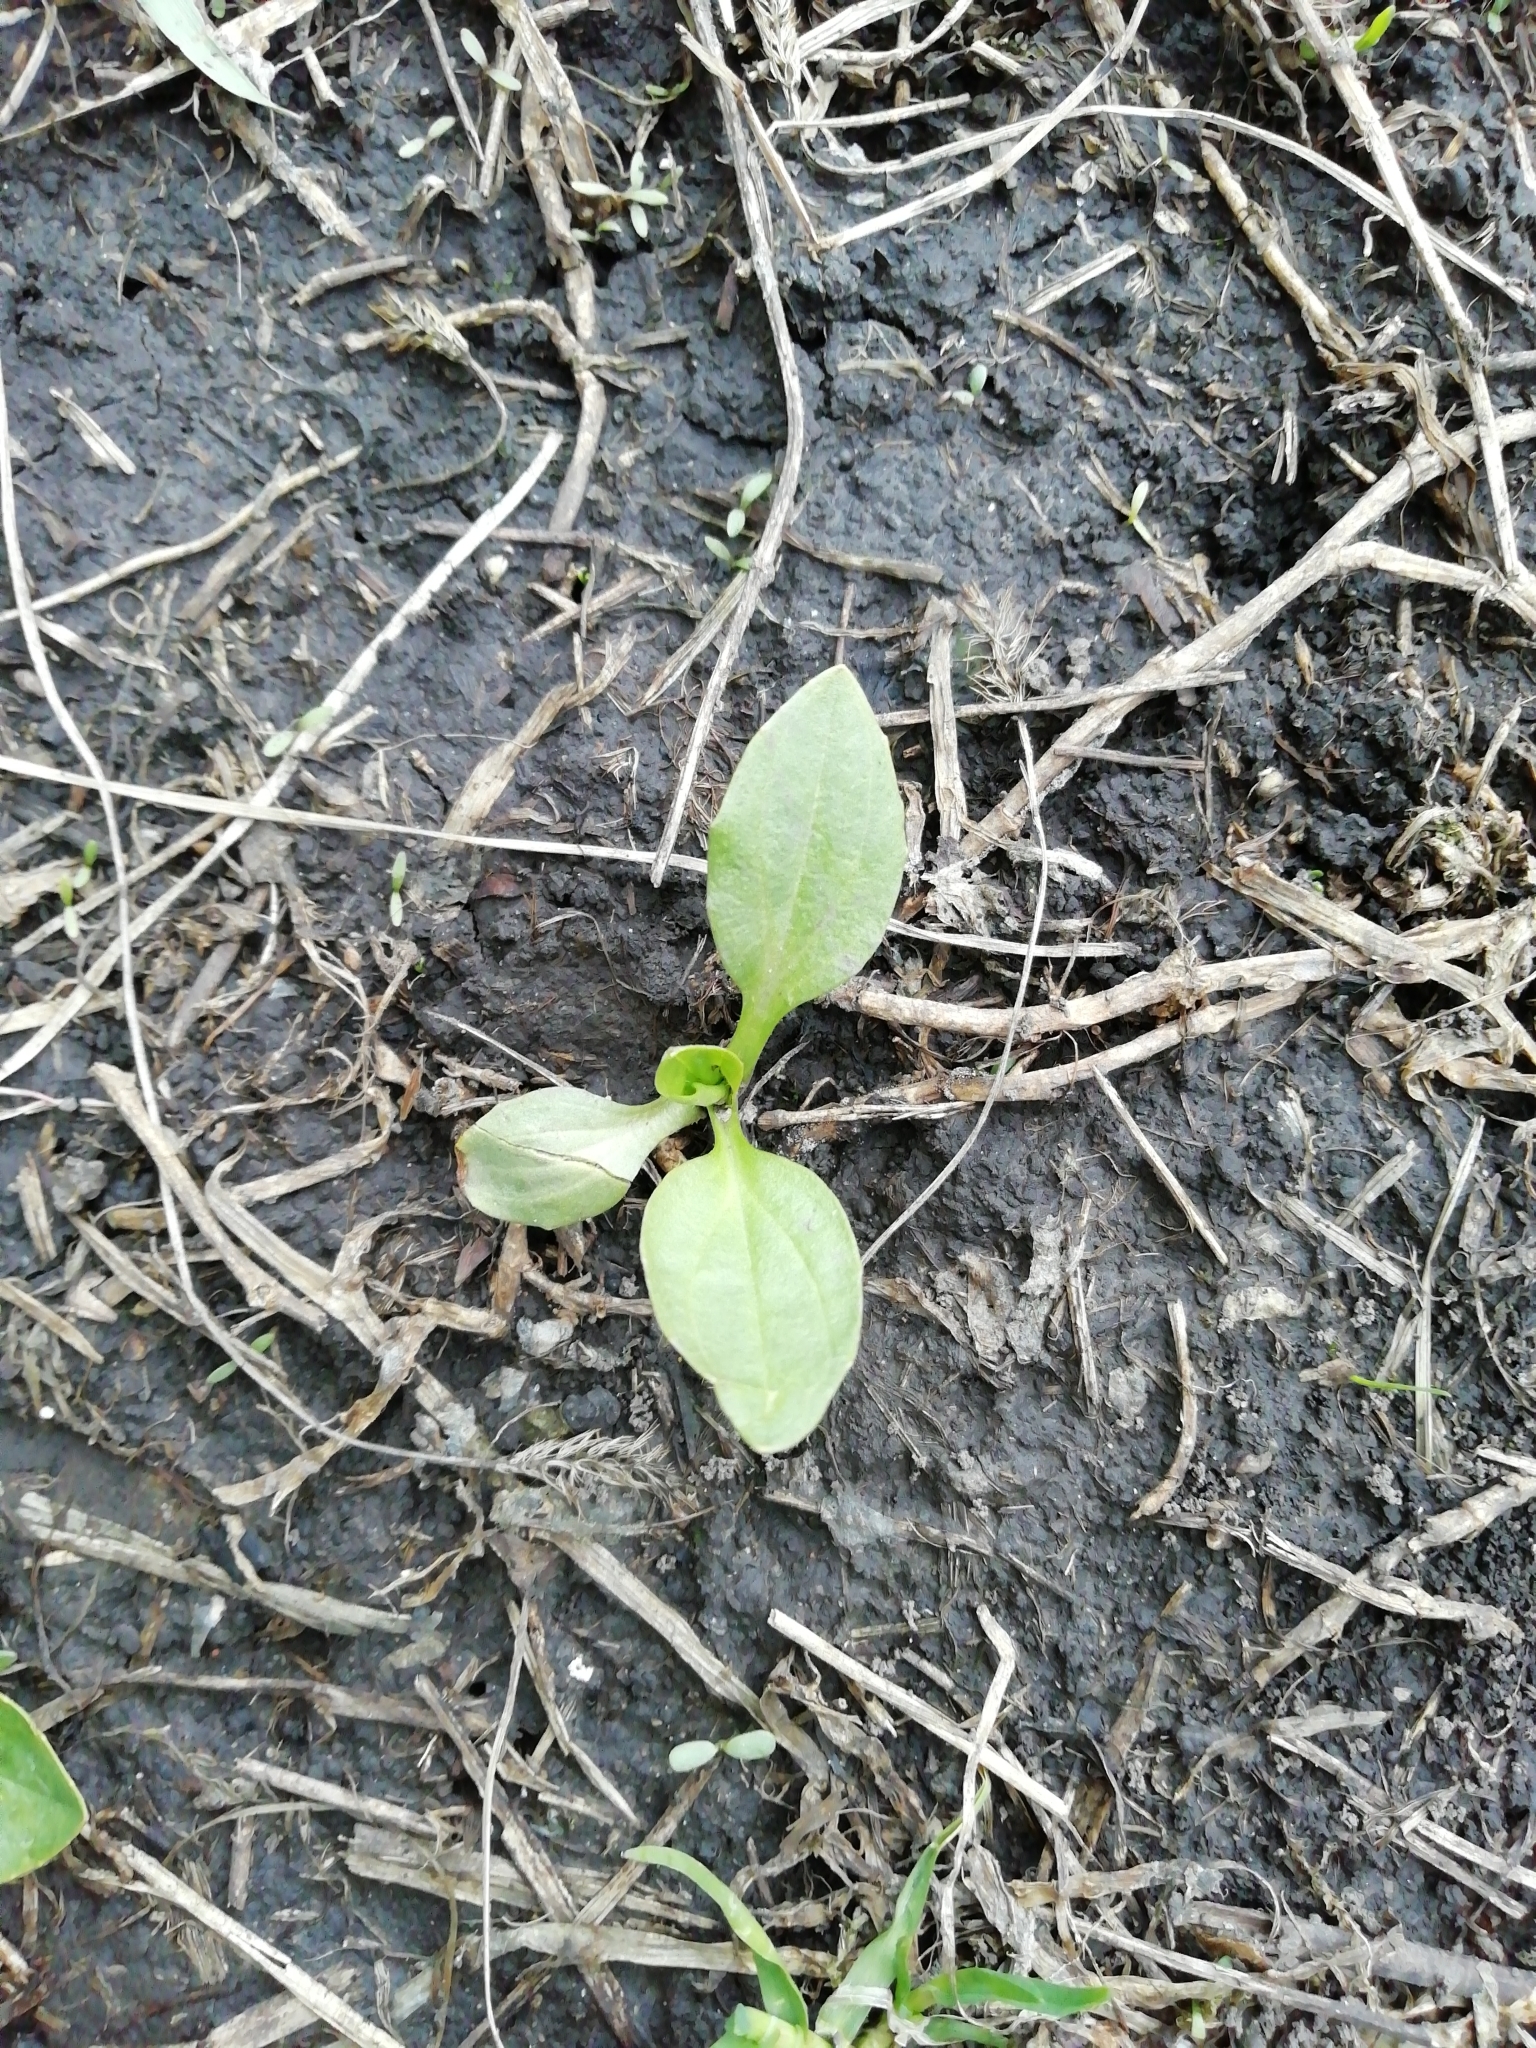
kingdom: Plantae
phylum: Tracheophyta
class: Magnoliopsida
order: Lamiales
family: Plantaginaceae
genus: Plantago
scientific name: Plantago major
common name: Common plantain
